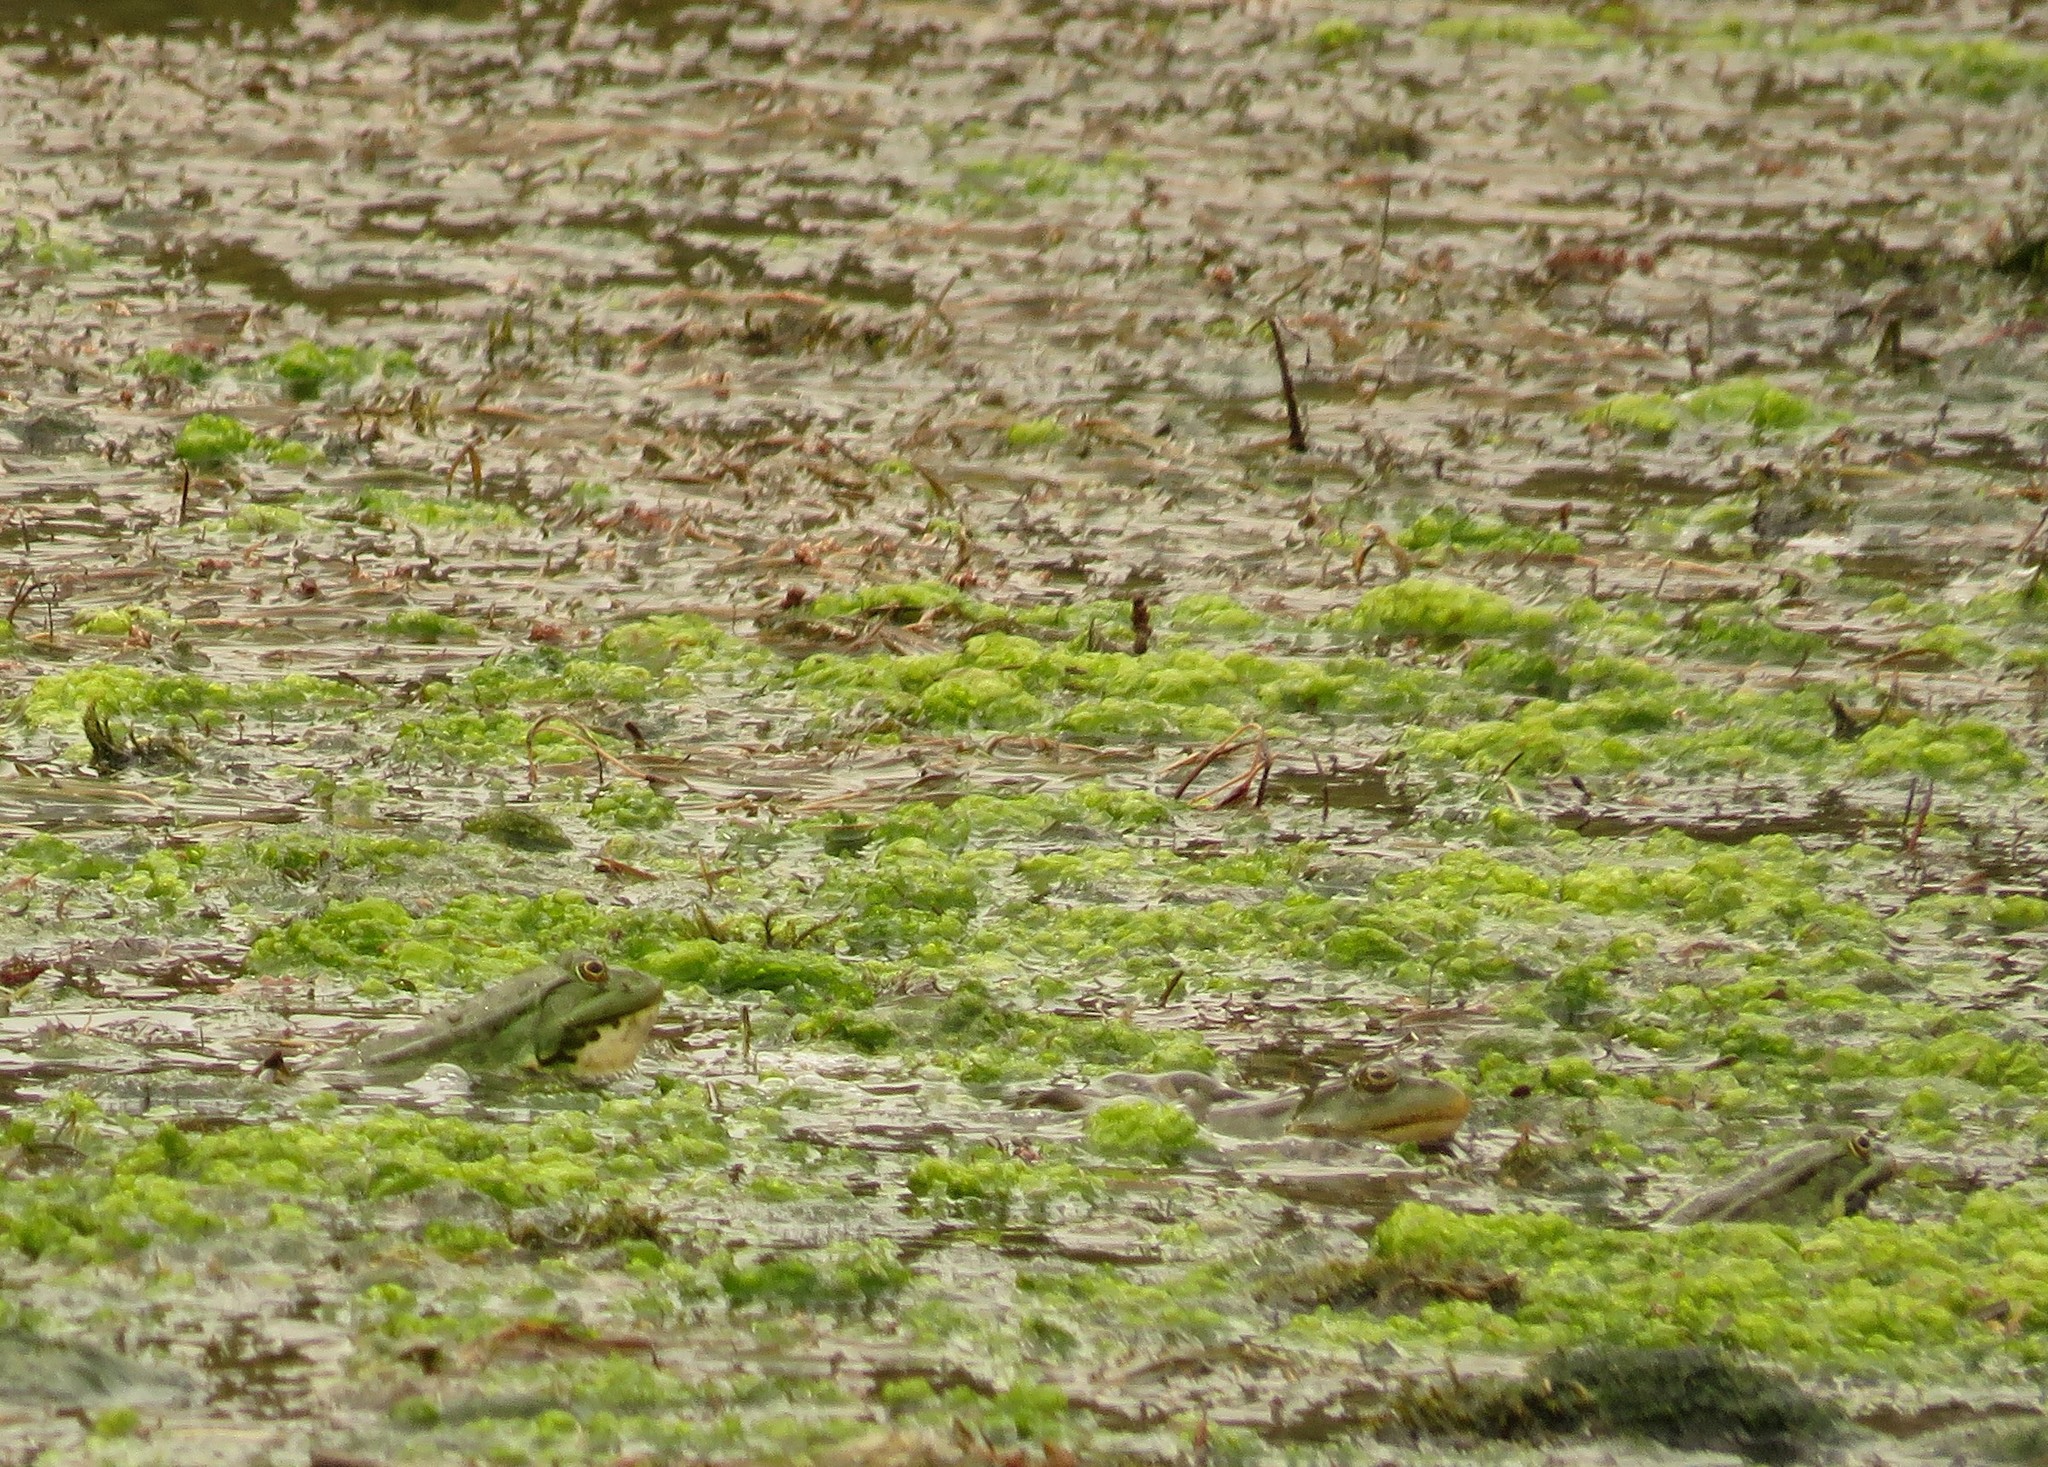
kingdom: Animalia
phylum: Chordata
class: Amphibia
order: Anura
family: Ranidae
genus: Pelophylax
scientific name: Pelophylax ridibundus
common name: Marsh frog
